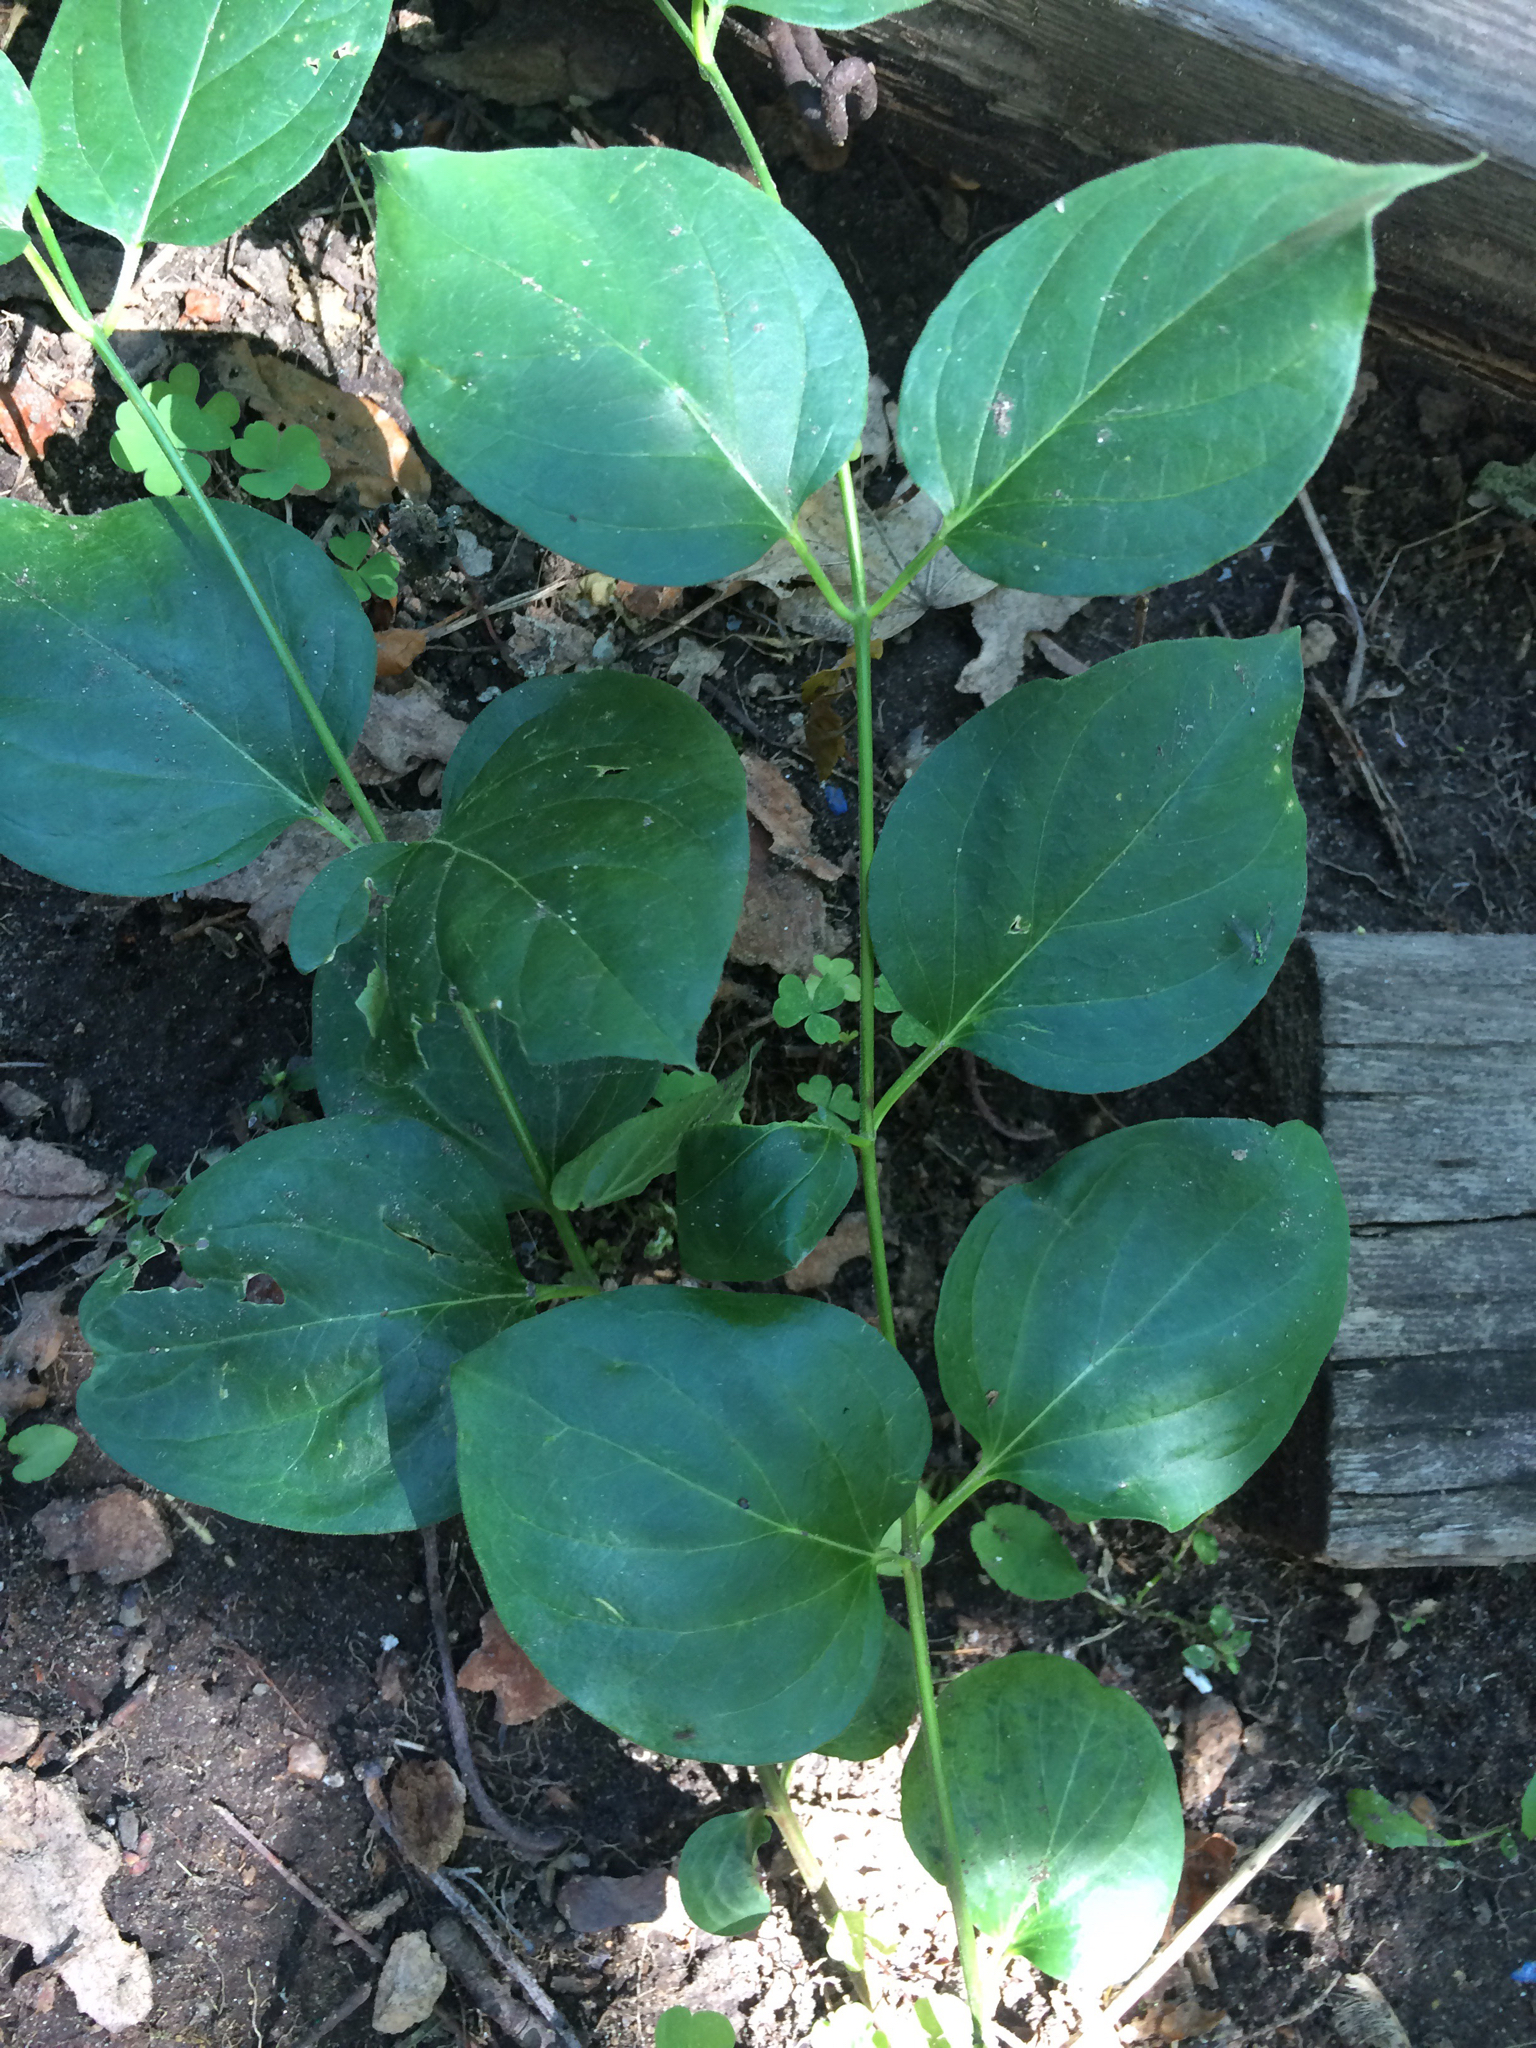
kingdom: Plantae
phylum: Tracheophyta
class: Magnoliopsida
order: Gentianales
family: Apocynaceae
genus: Vincetoxicum
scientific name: Vincetoxicum nigrum
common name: Black swallow-wort
